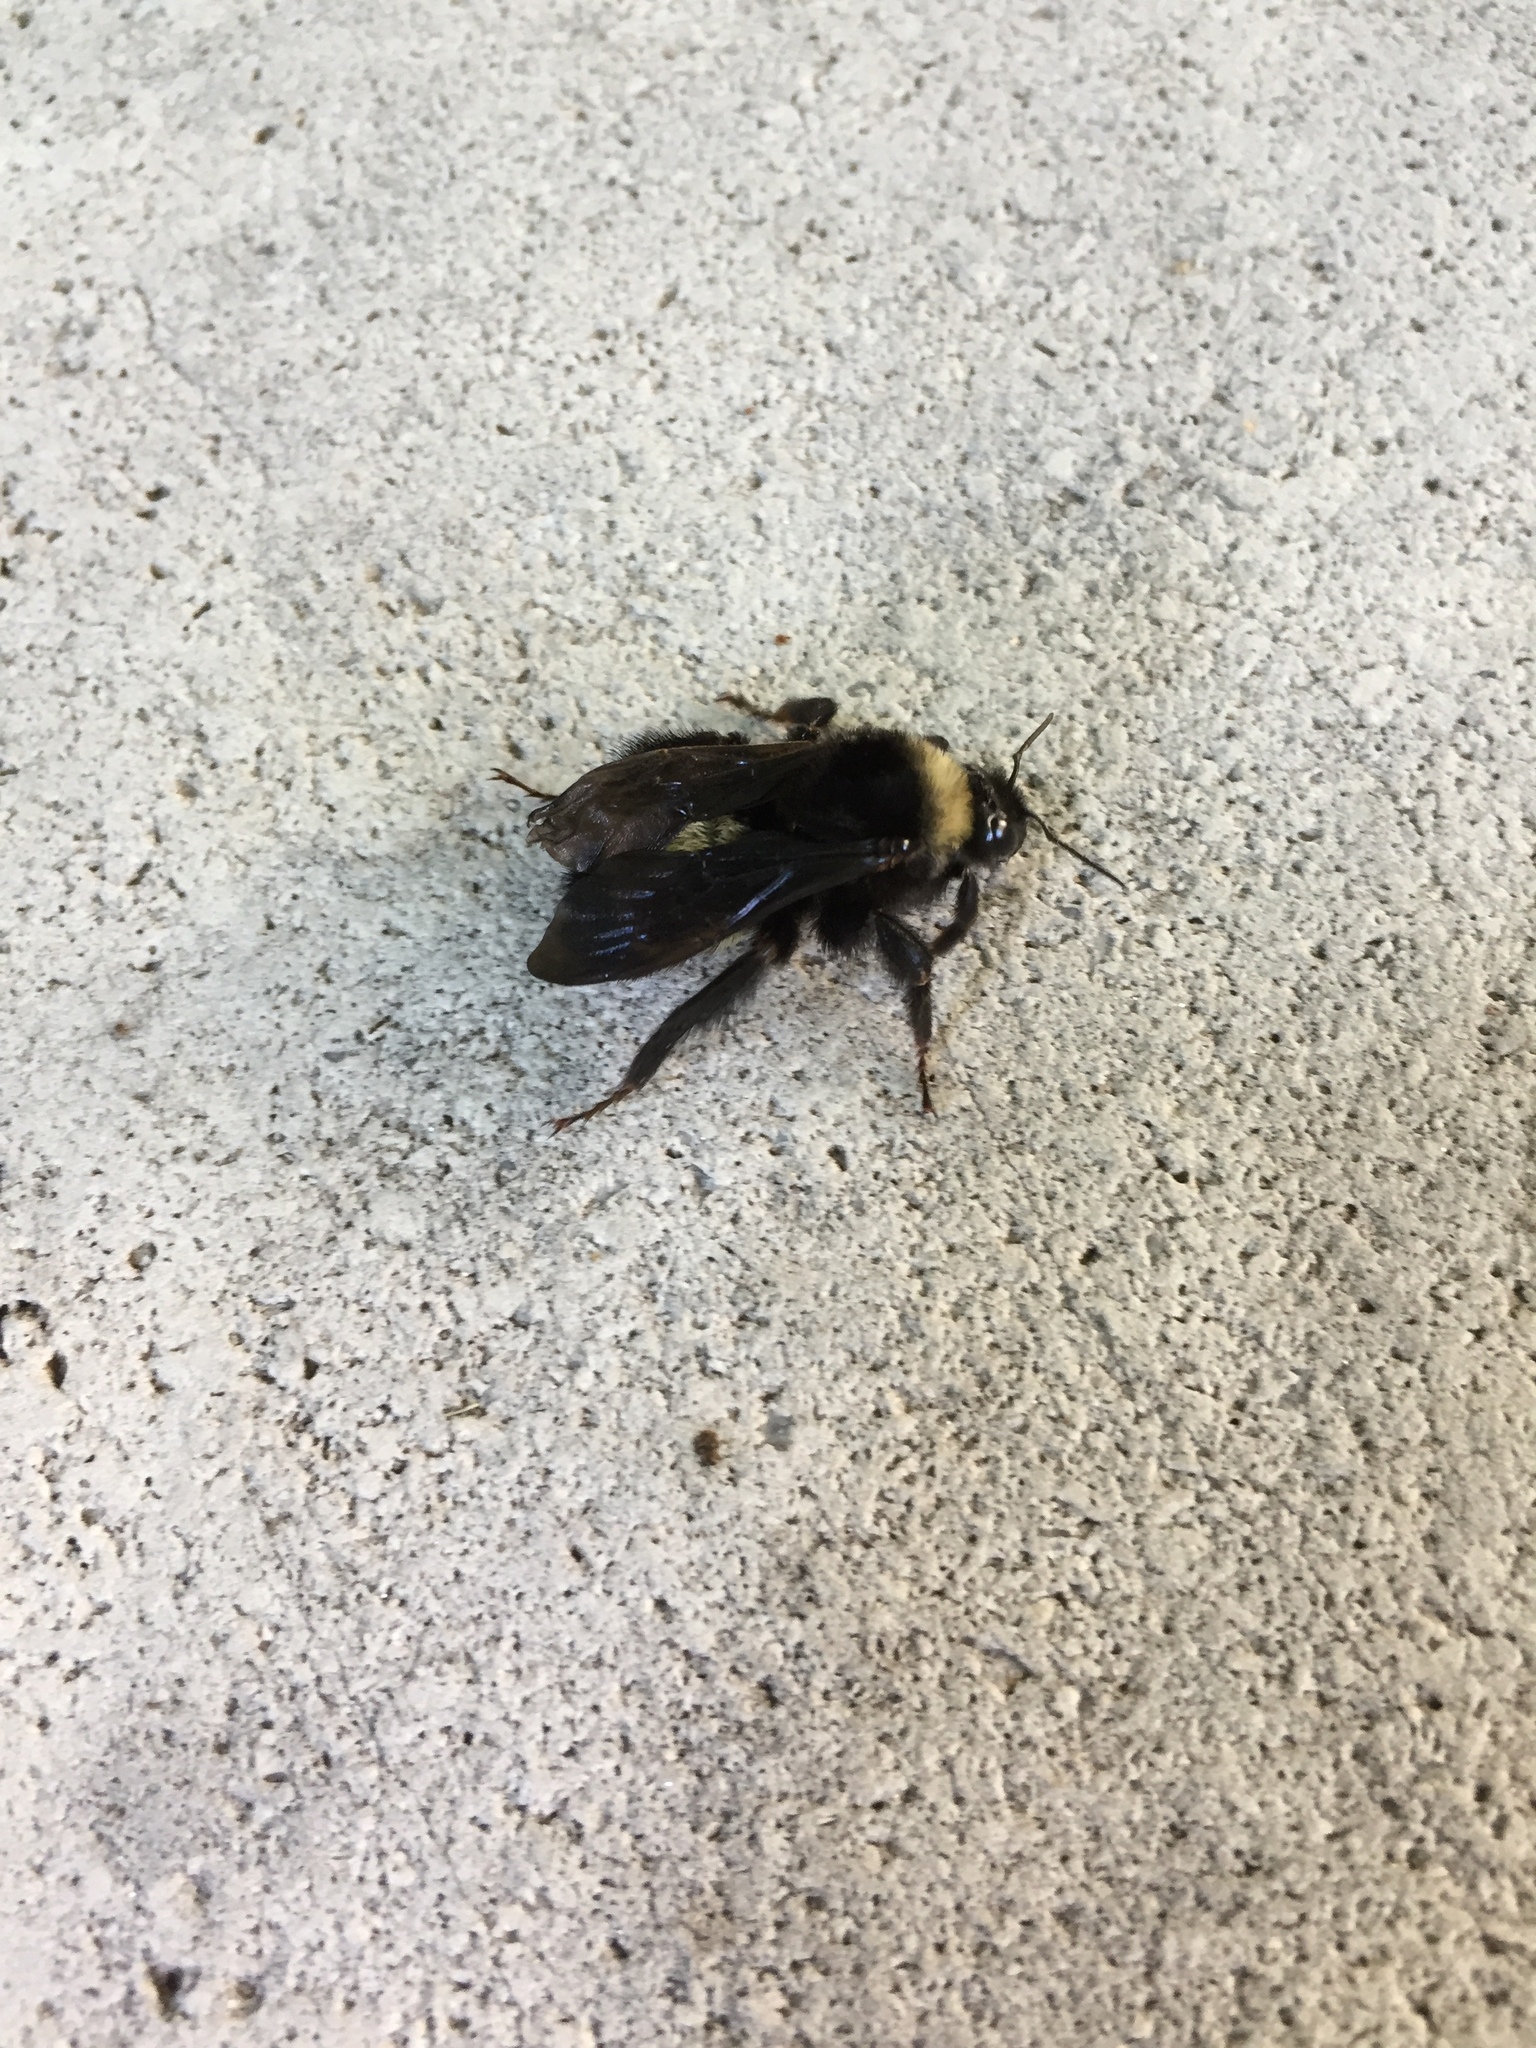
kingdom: Animalia
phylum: Arthropoda
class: Insecta
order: Hymenoptera
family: Apidae
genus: Bombus
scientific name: Bombus pensylvanicus
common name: Bumble bee
